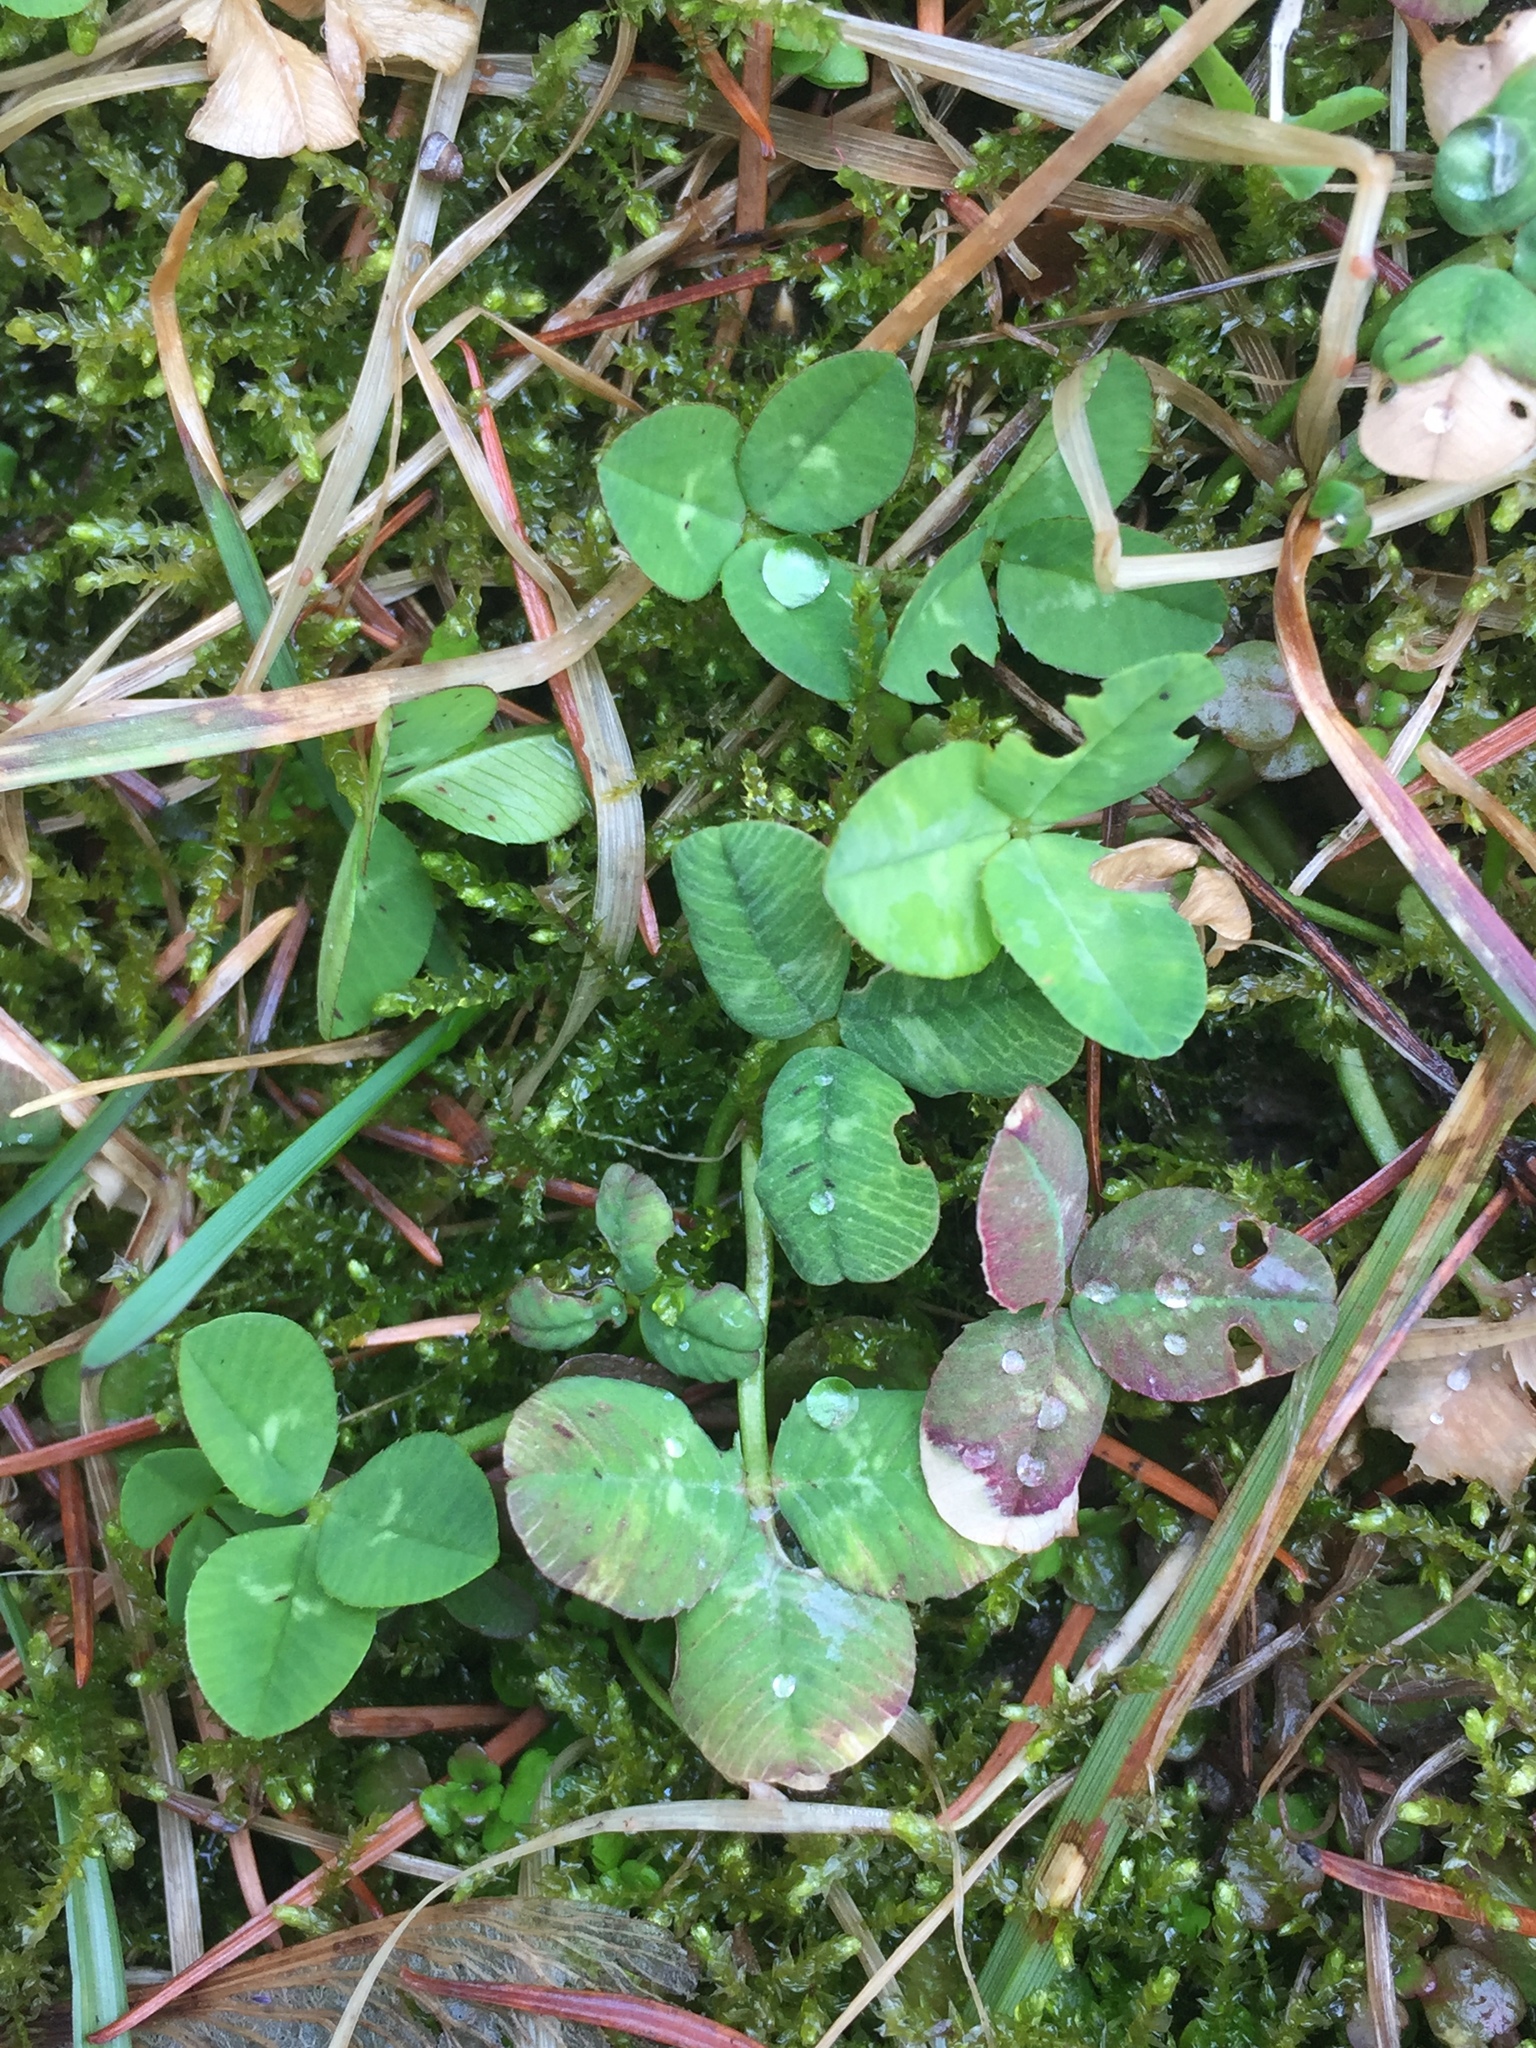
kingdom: Plantae
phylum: Tracheophyta
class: Magnoliopsida
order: Fabales
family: Fabaceae
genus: Trifolium
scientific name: Trifolium repens
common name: White clover
